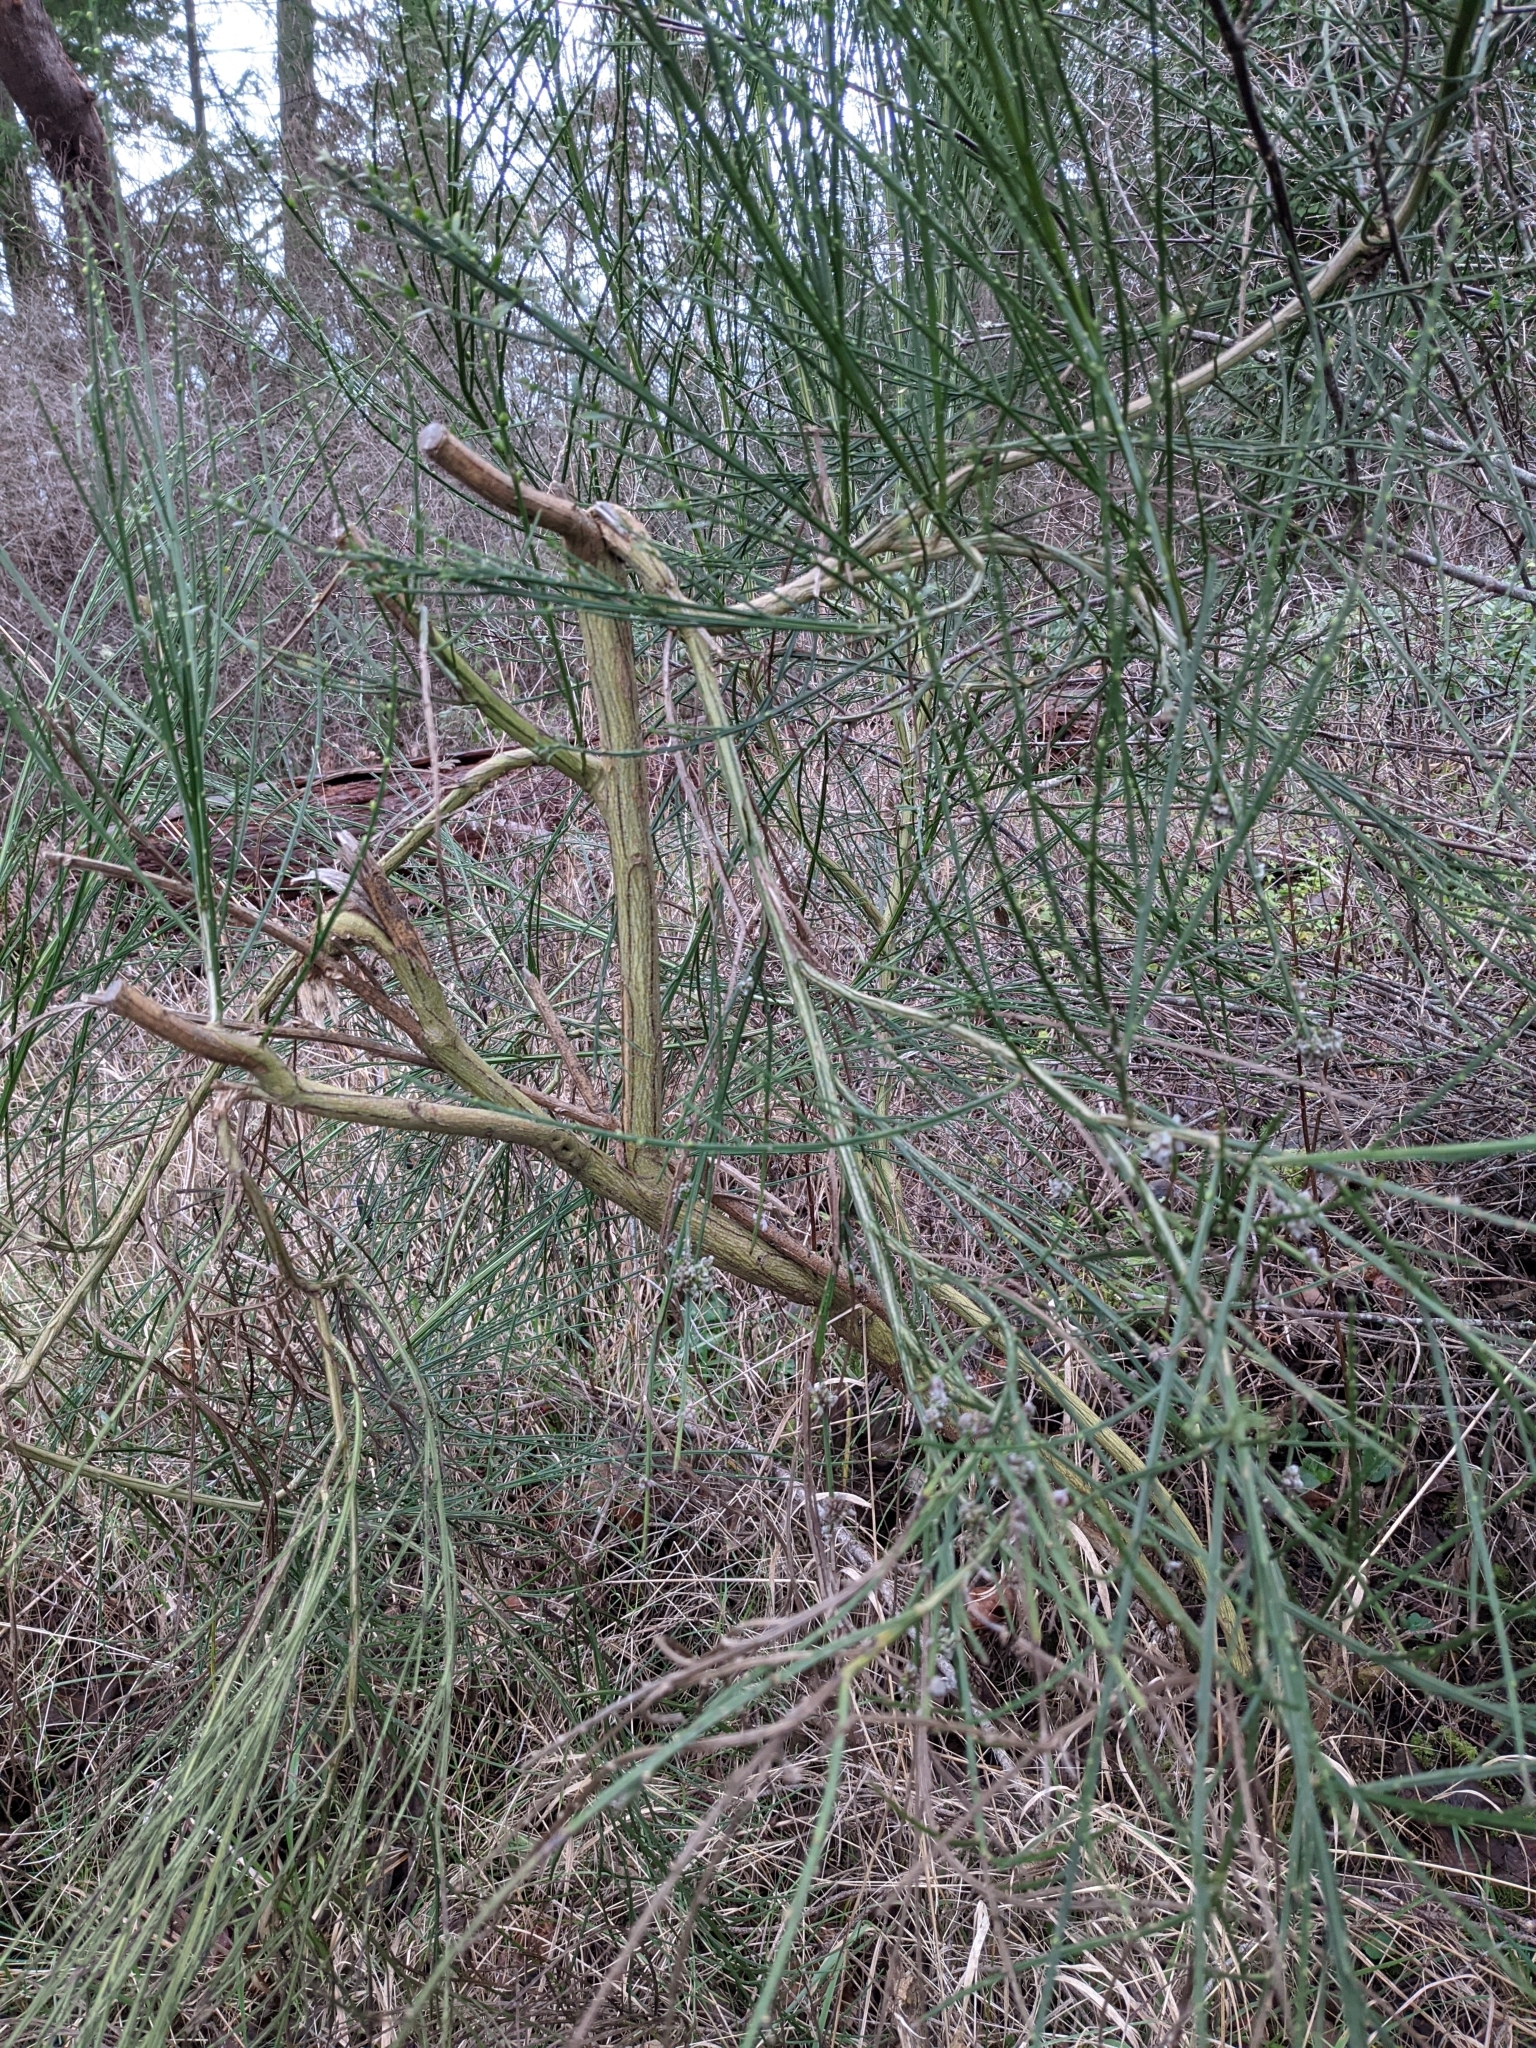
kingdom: Plantae
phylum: Tracheophyta
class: Magnoliopsida
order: Fabales
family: Fabaceae
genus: Cytisus
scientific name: Cytisus scoparius
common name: Scotch broom
